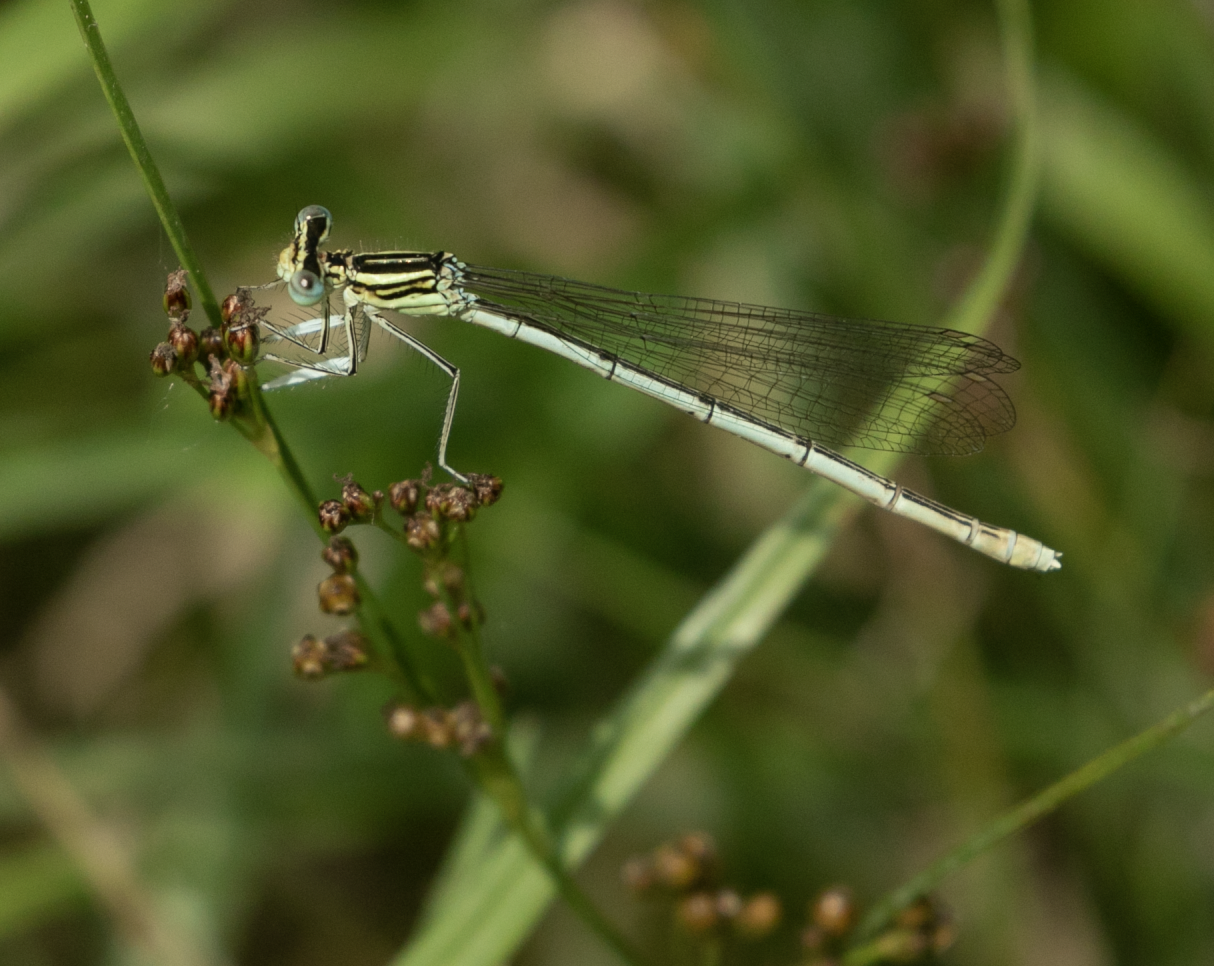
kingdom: Animalia
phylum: Arthropoda
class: Insecta
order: Odonata
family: Platycnemididae
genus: Platycnemis
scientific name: Platycnemis pennipes
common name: White-legged damselfly
